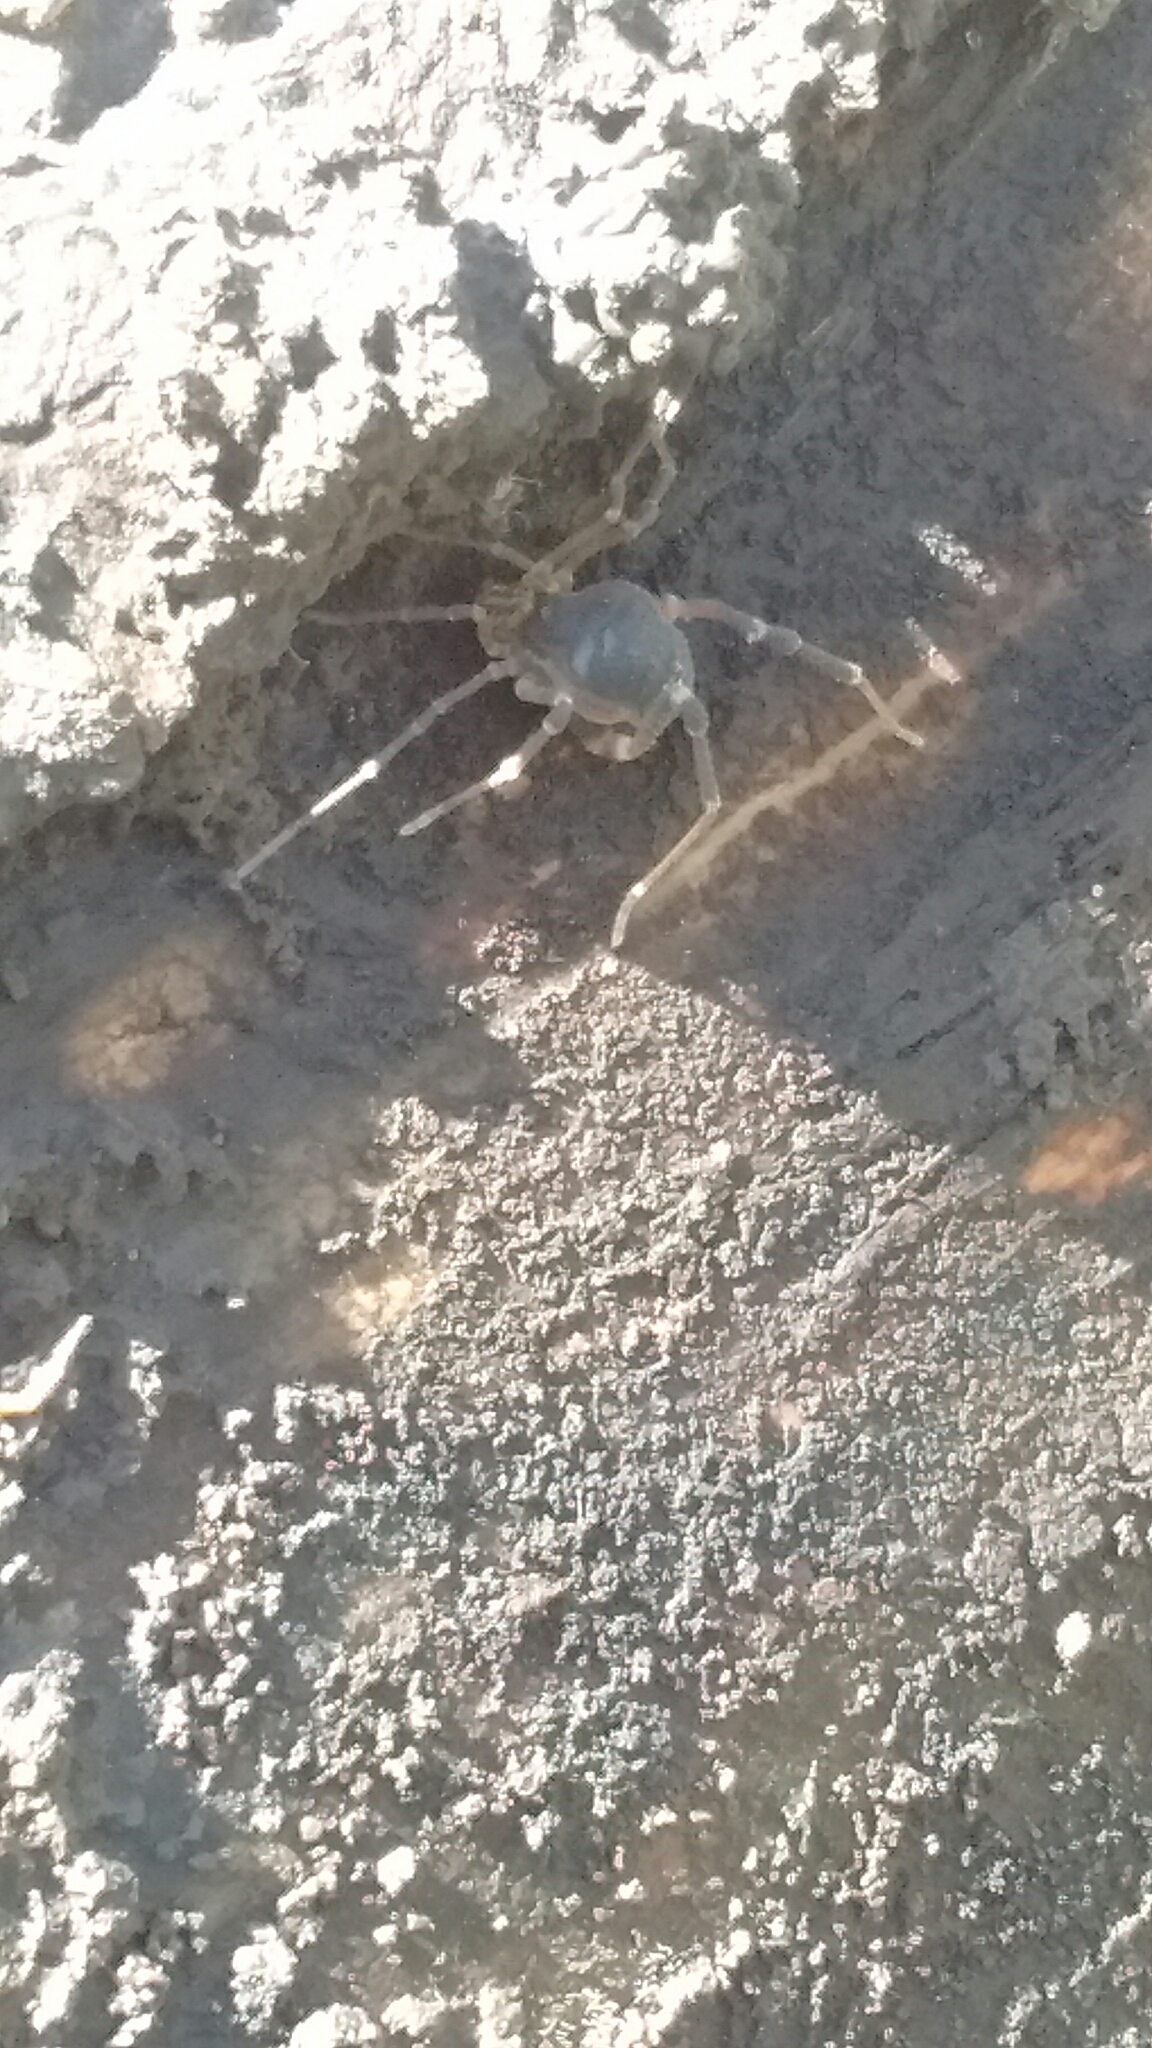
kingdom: Animalia
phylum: Arthropoda
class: Arachnida
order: Opiliones
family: Gonyleptidae
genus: Acanthopachylus
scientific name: Acanthopachylus robustus
